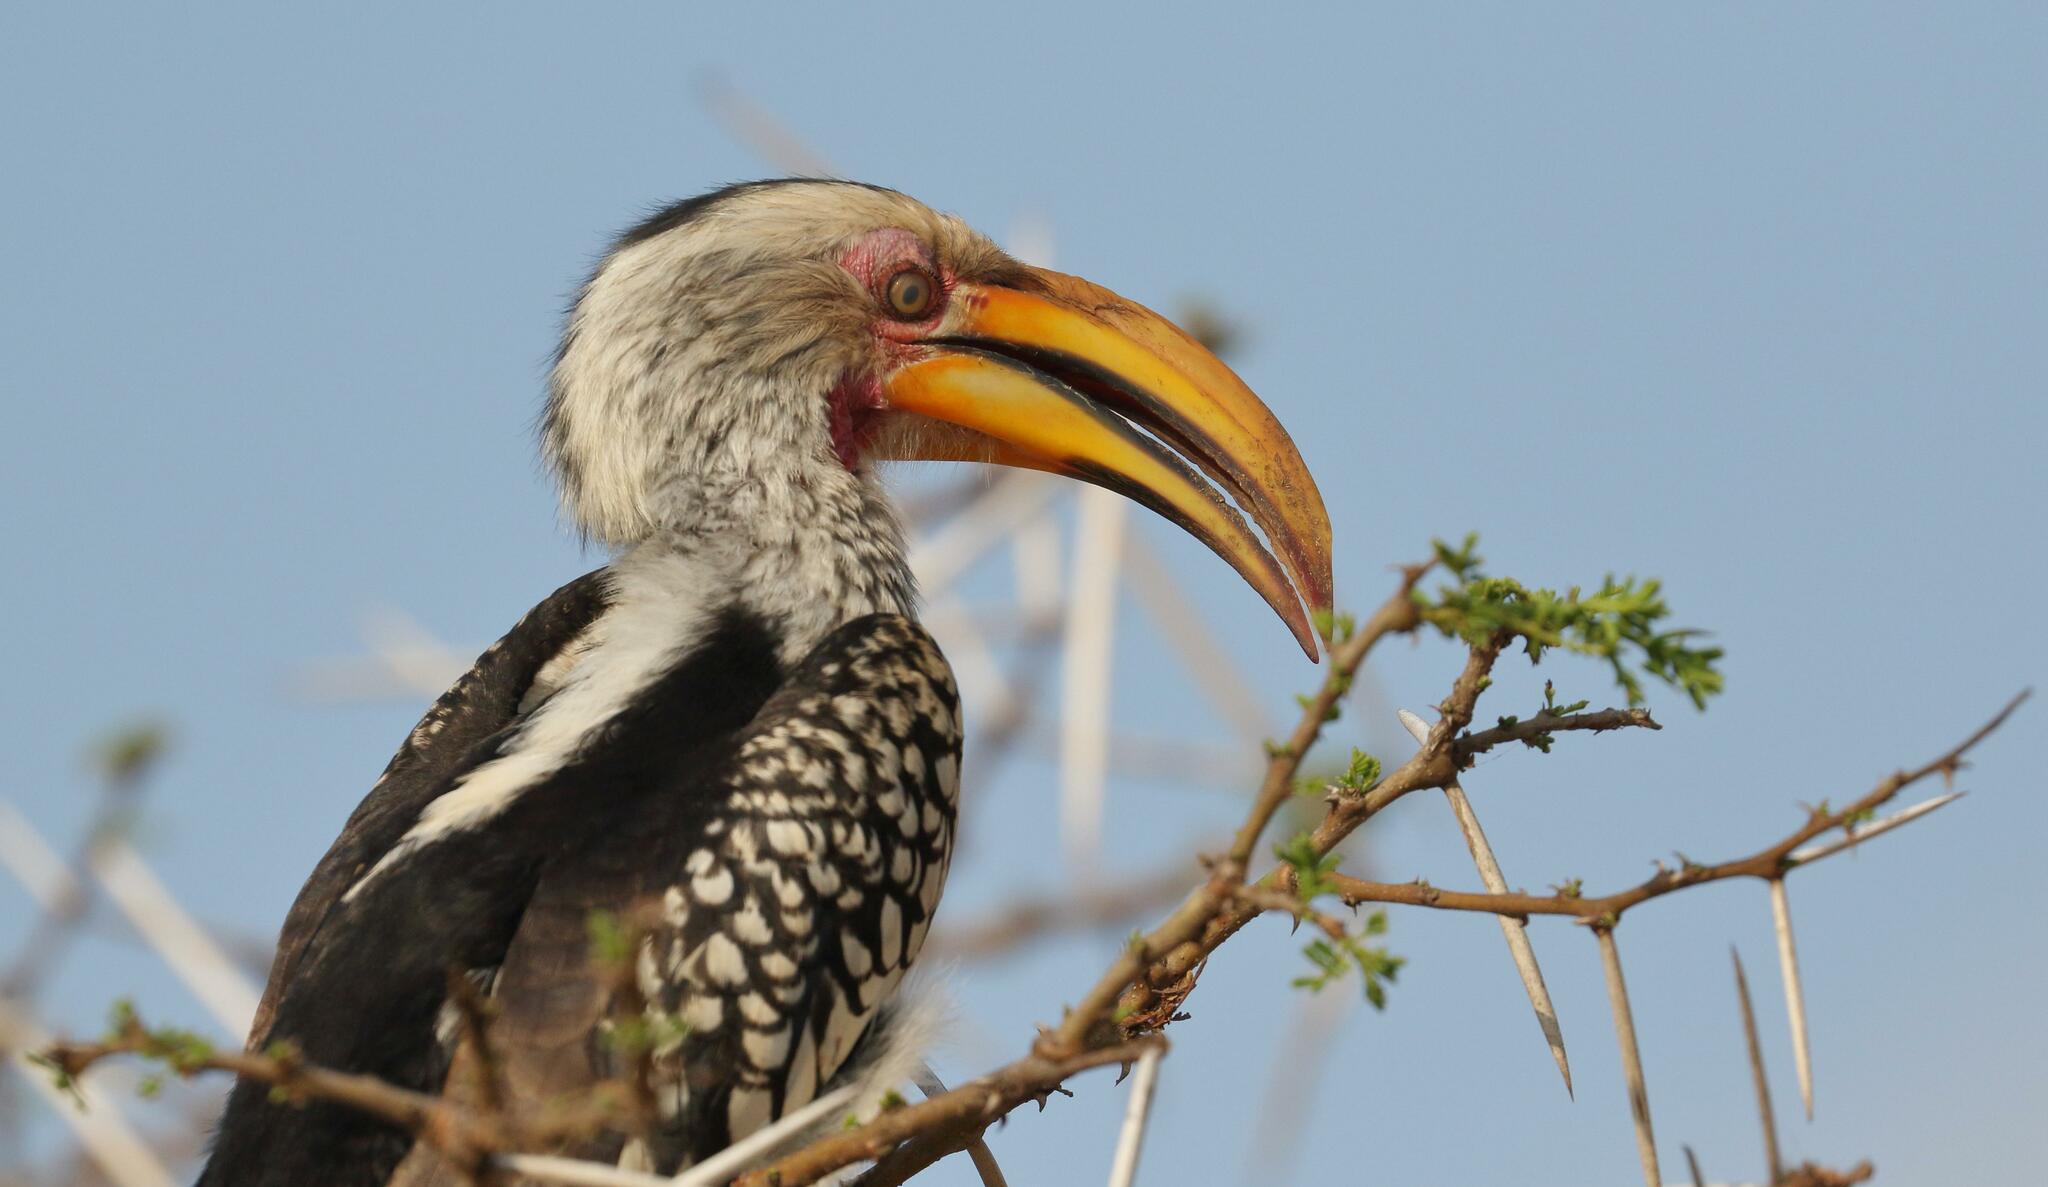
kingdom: Animalia
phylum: Chordata
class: Aves
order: Bucerotiformes
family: Bucerotidae
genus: Tockus
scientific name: Tockus leucomelas
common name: Southern yellow-billed hornbill
